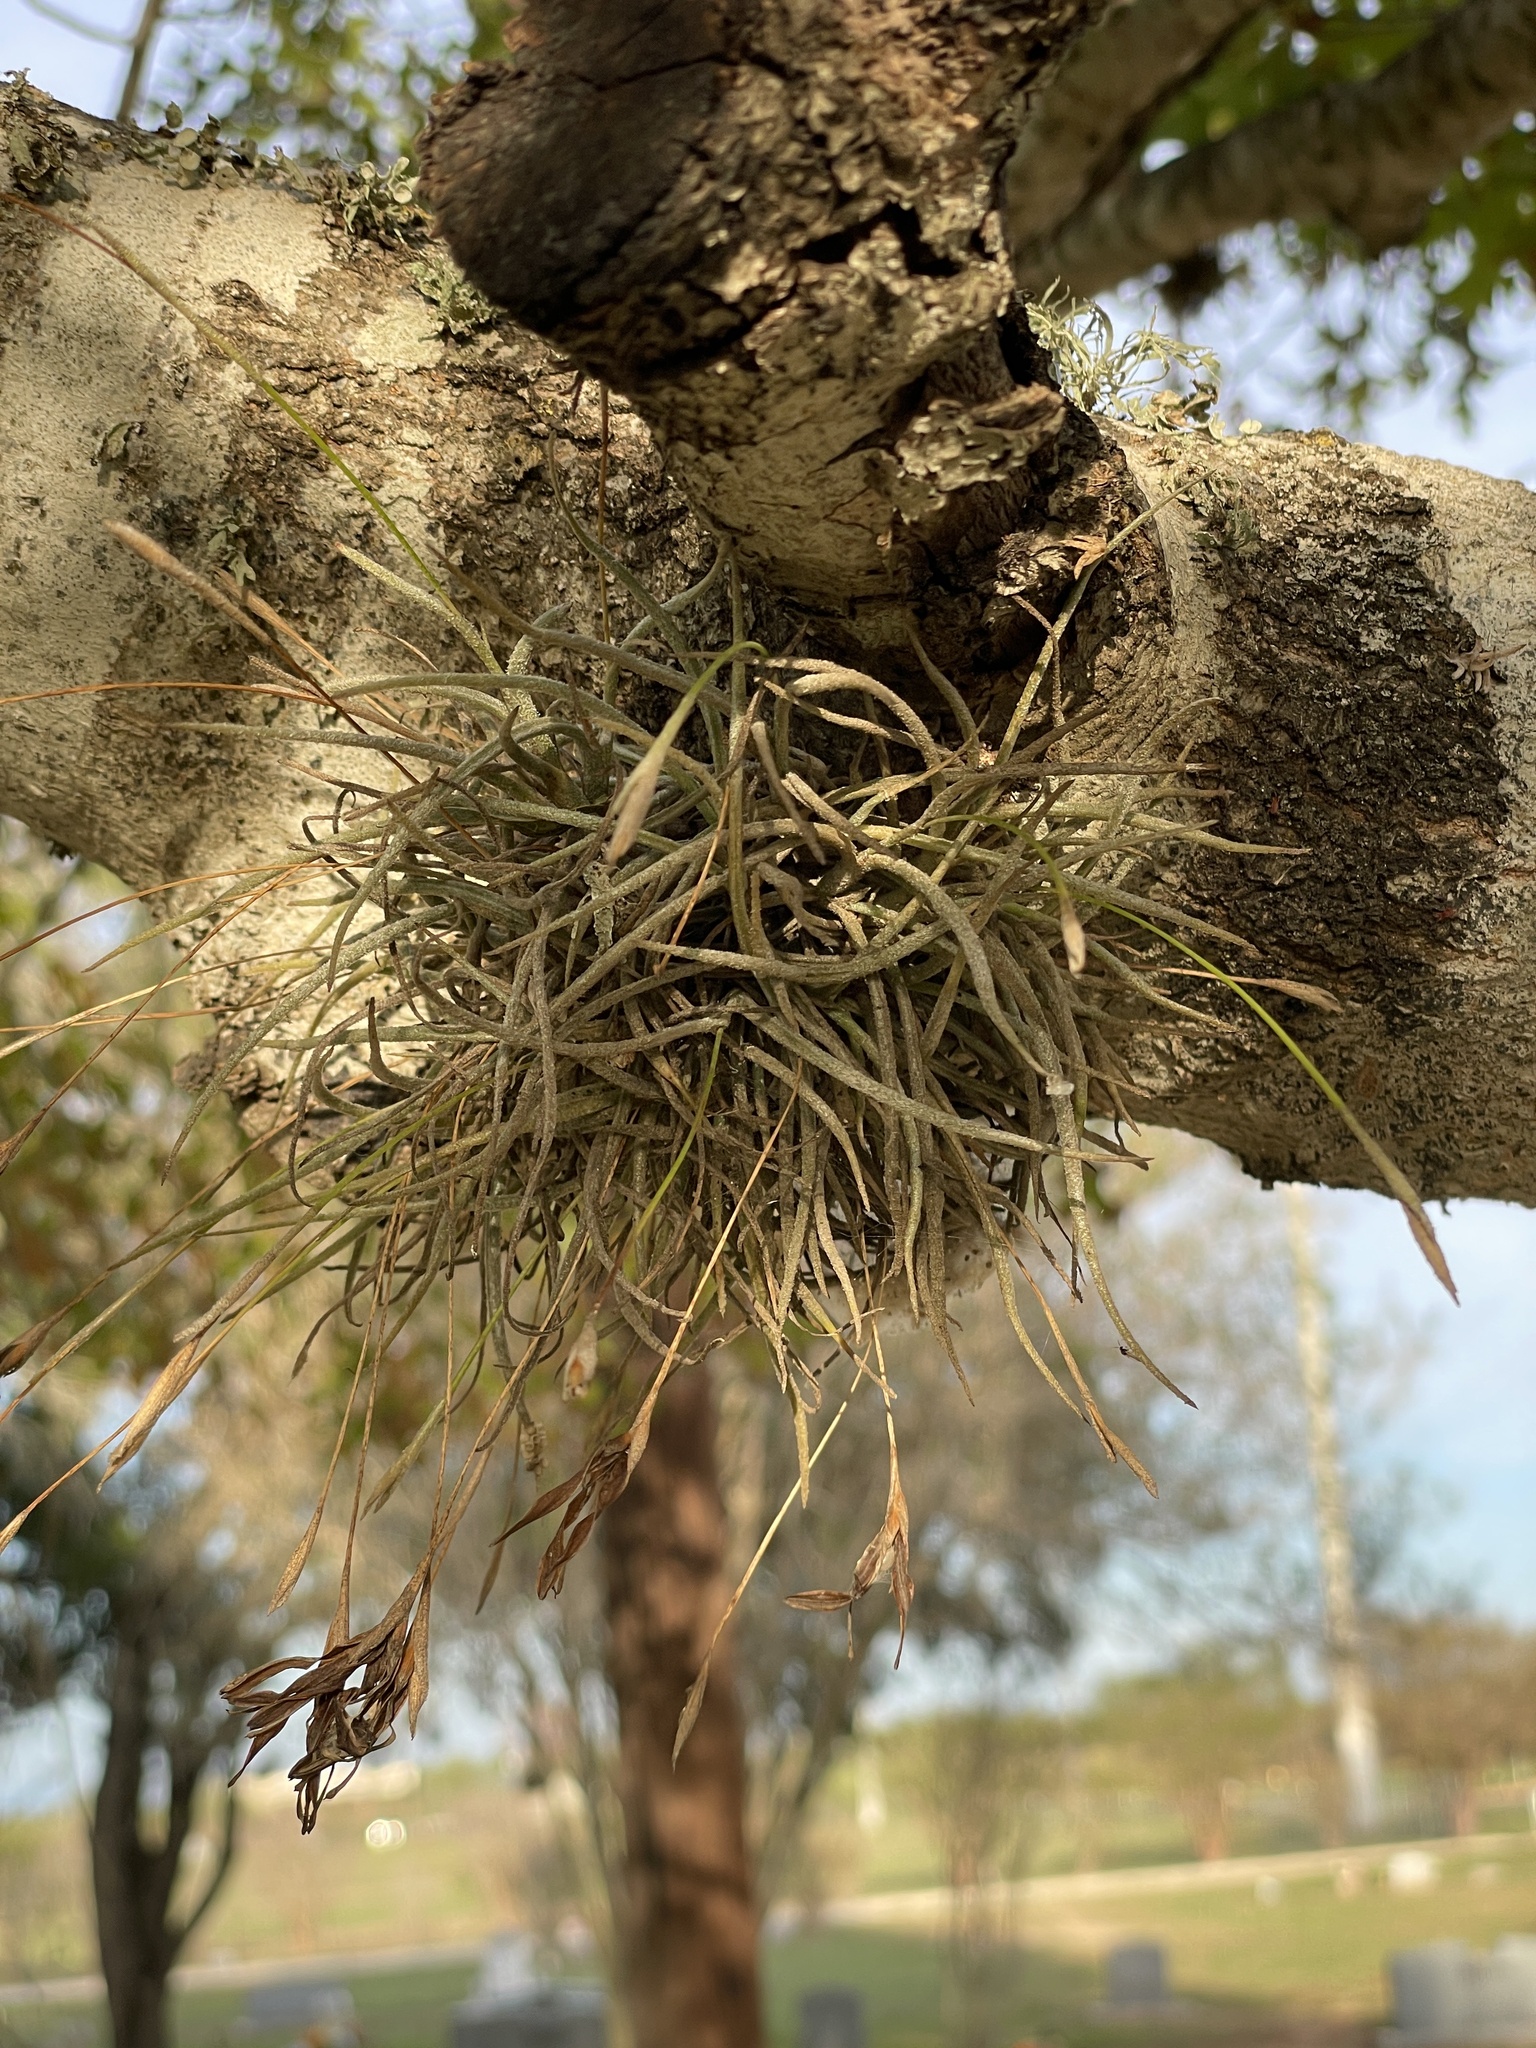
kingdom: Plantae
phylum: Tracheophyta
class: Liliopsida
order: Poales
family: Bromeliaceae
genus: Tillandsia
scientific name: Tillandsia recurvata
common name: Small ballmoss
